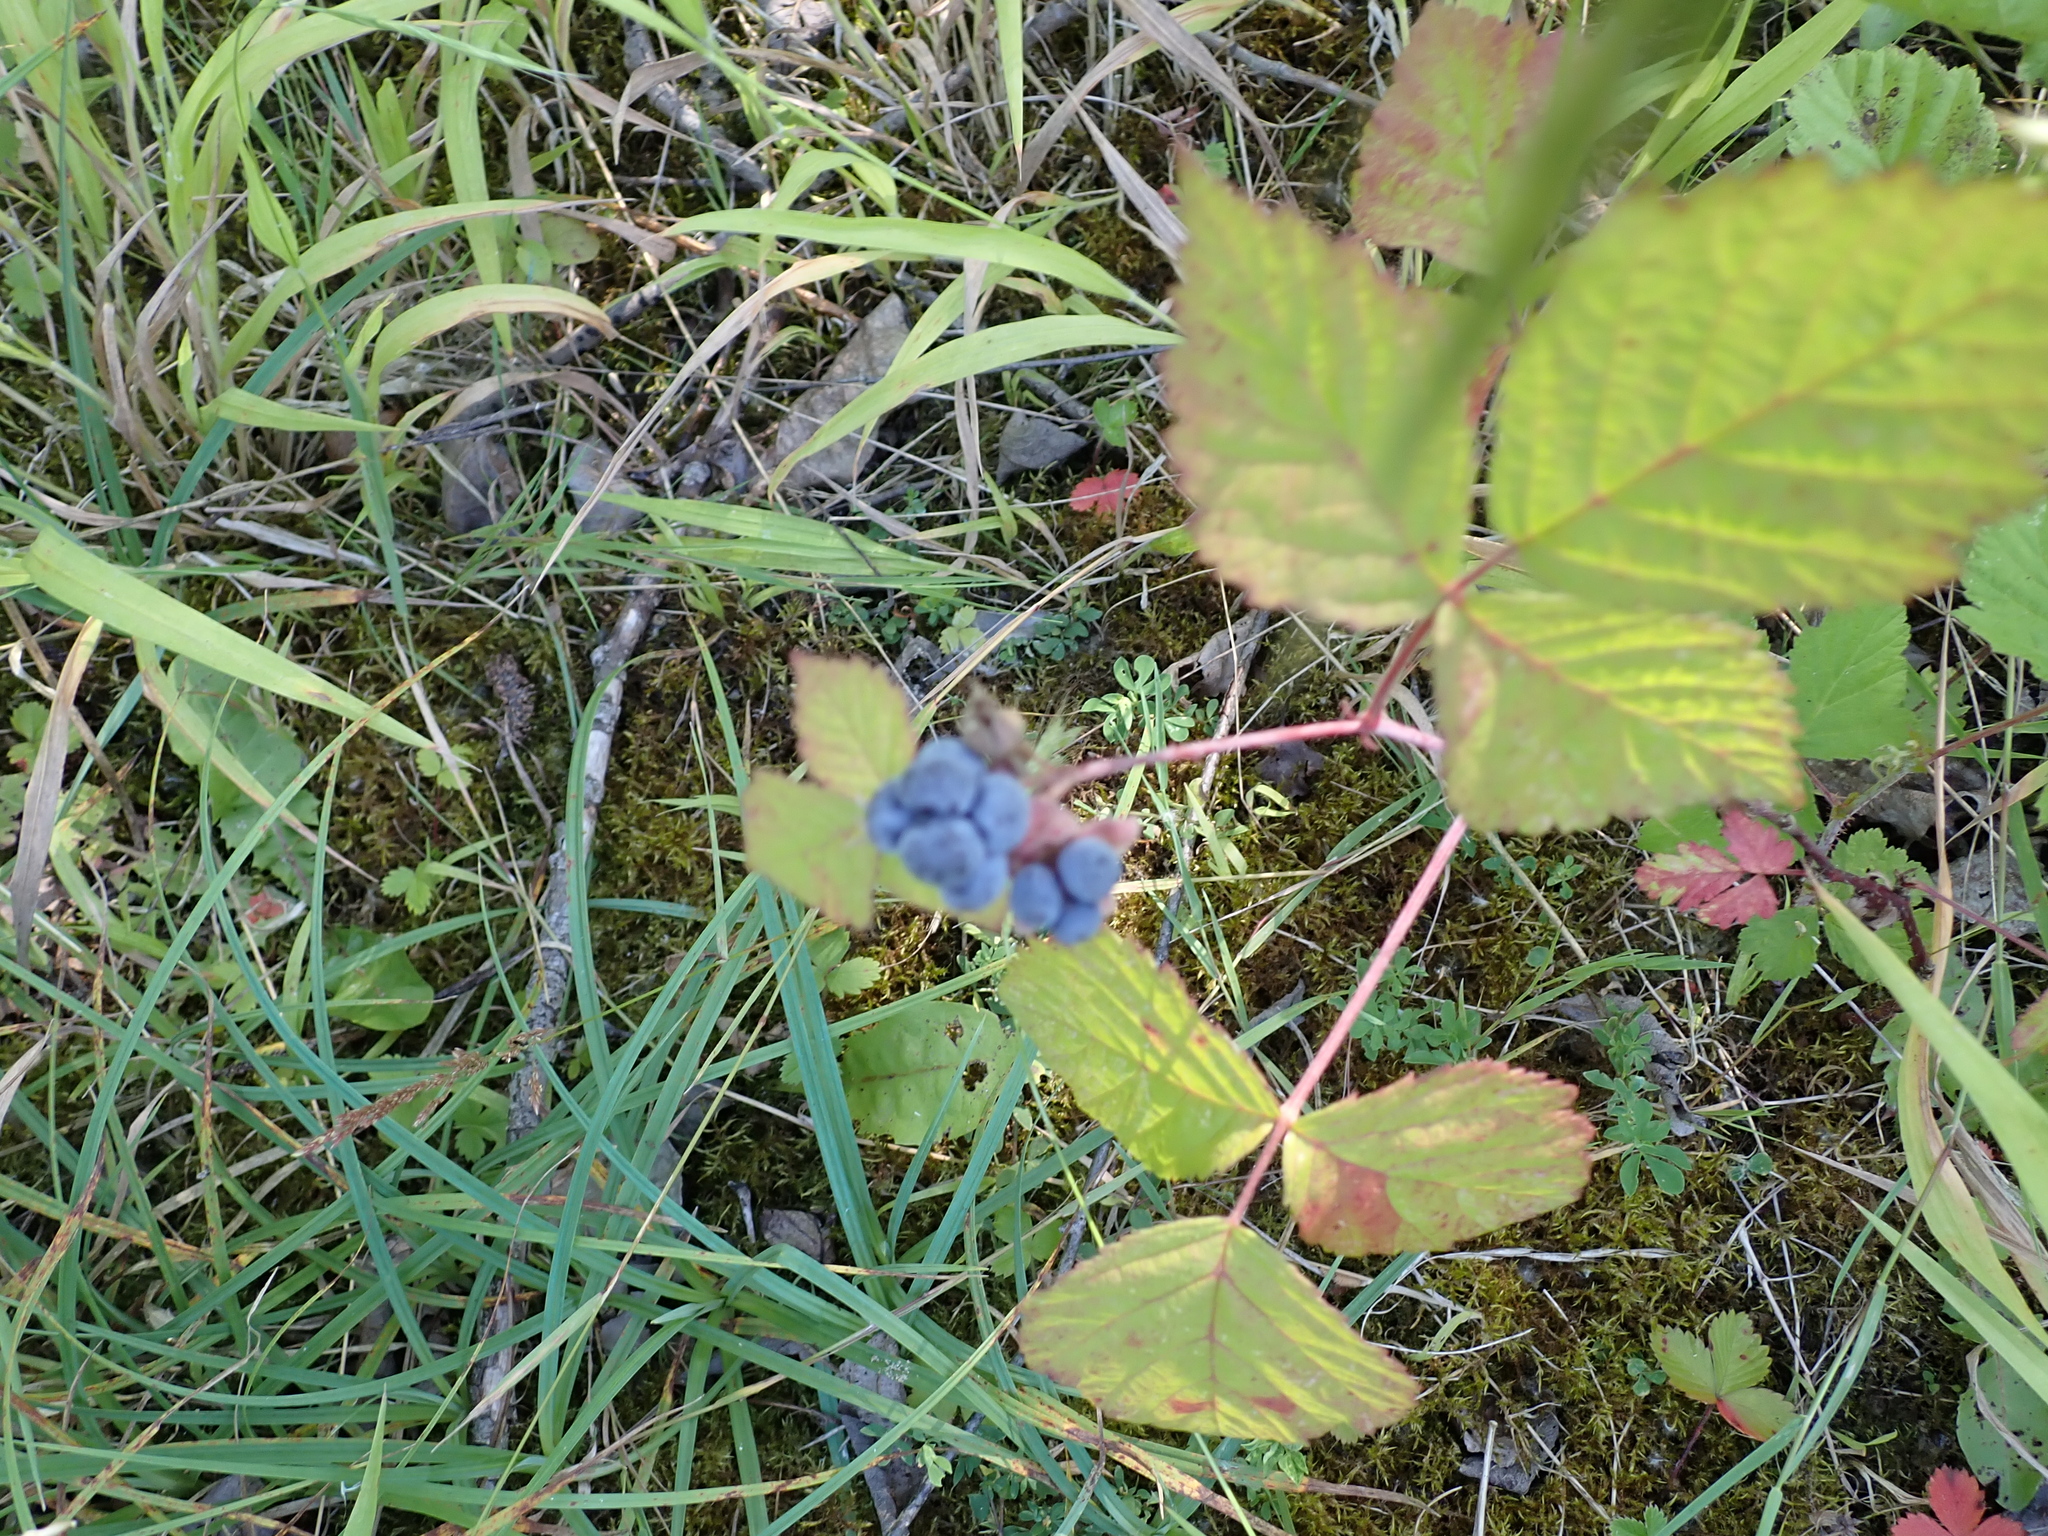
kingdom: Plantae
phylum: Tracheophyta
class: Magnoliopsida
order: Rosales
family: Rosaceae
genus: Rubus
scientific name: Rubus caesius
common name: Dewberry
